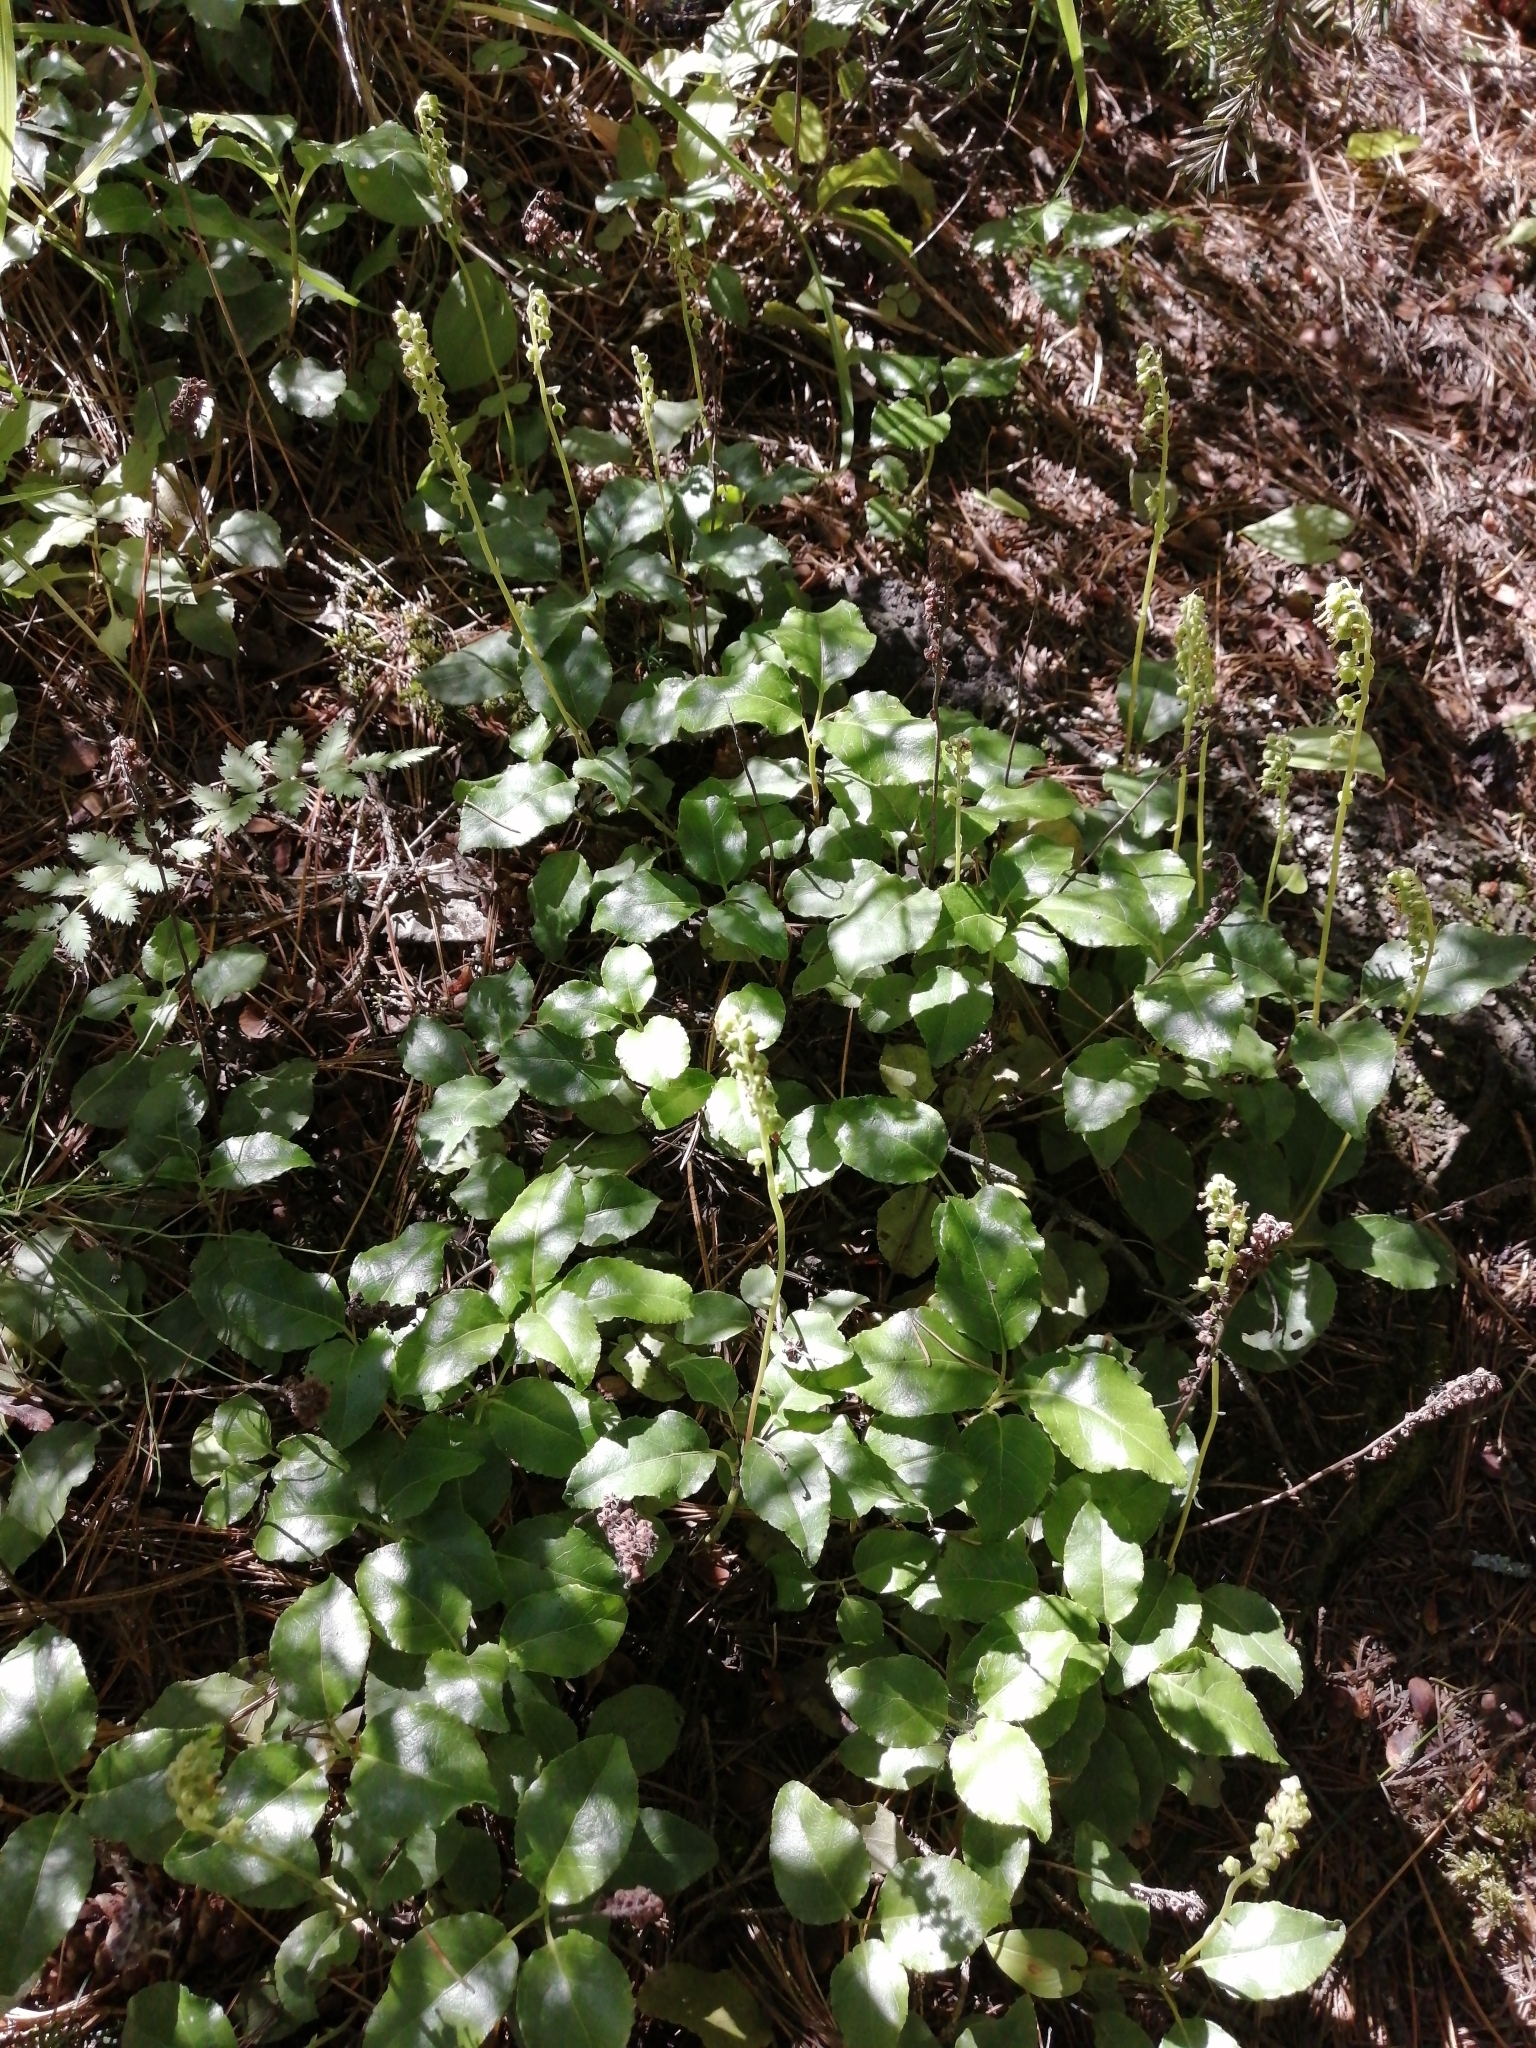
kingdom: Plantae
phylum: Tracheophyta
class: Magnoliopsida
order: Ericales
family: Ericaceae
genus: Orthilia
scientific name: Orthilia secunda
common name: One-sided orthilia
